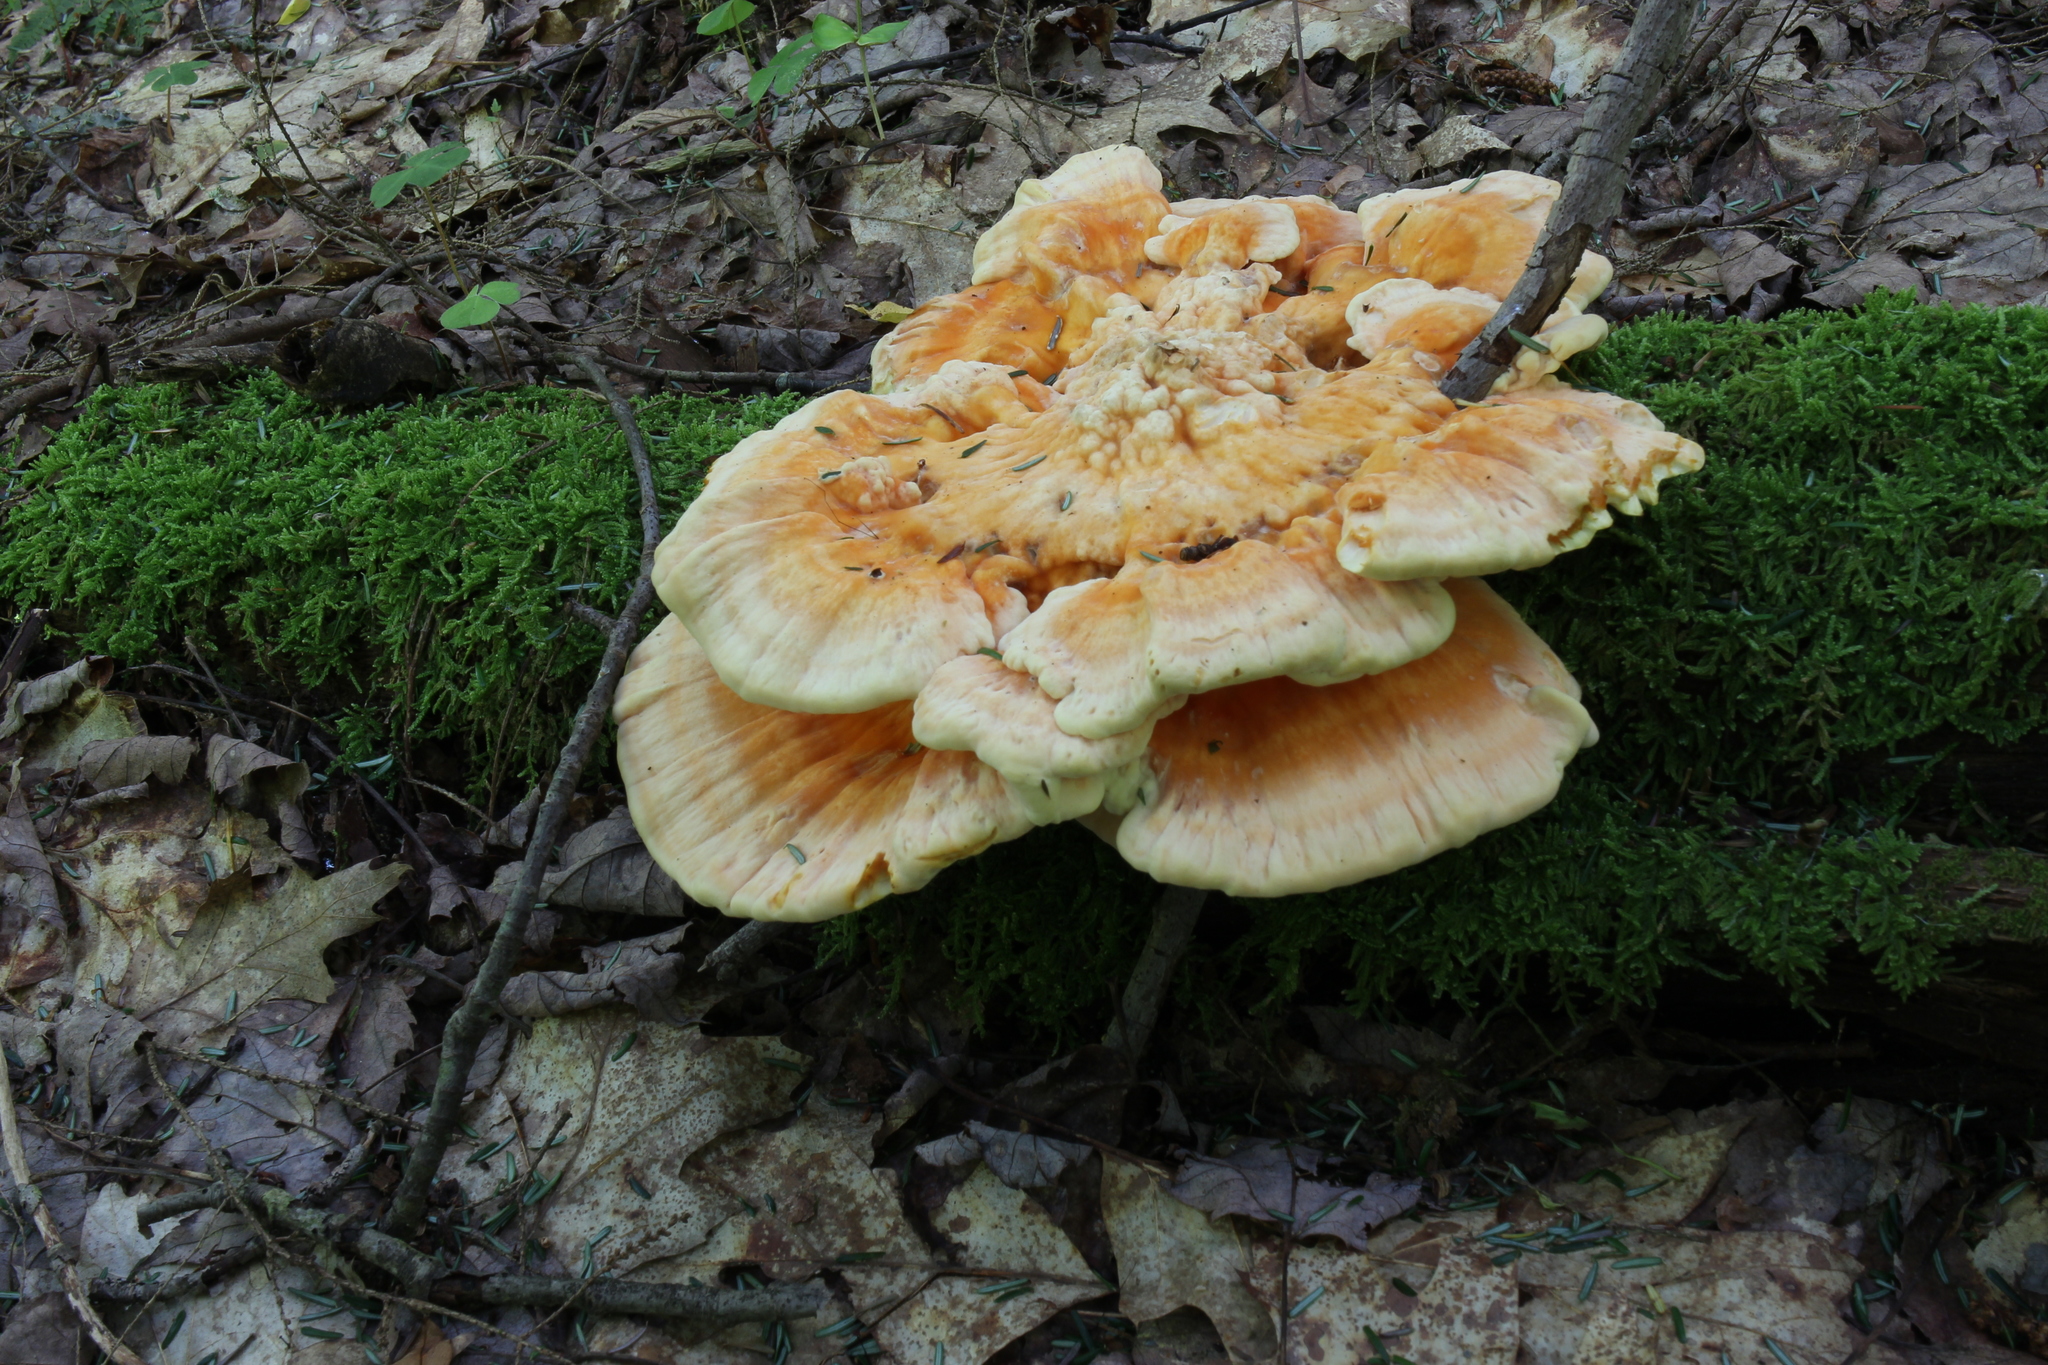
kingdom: Fungi
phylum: Basidiomycota
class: Agaricomycetes
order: Polyporales
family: Laetiporaceae
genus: Laetiporus
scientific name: Laetiporus sulphureus
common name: Chicken of the woods
